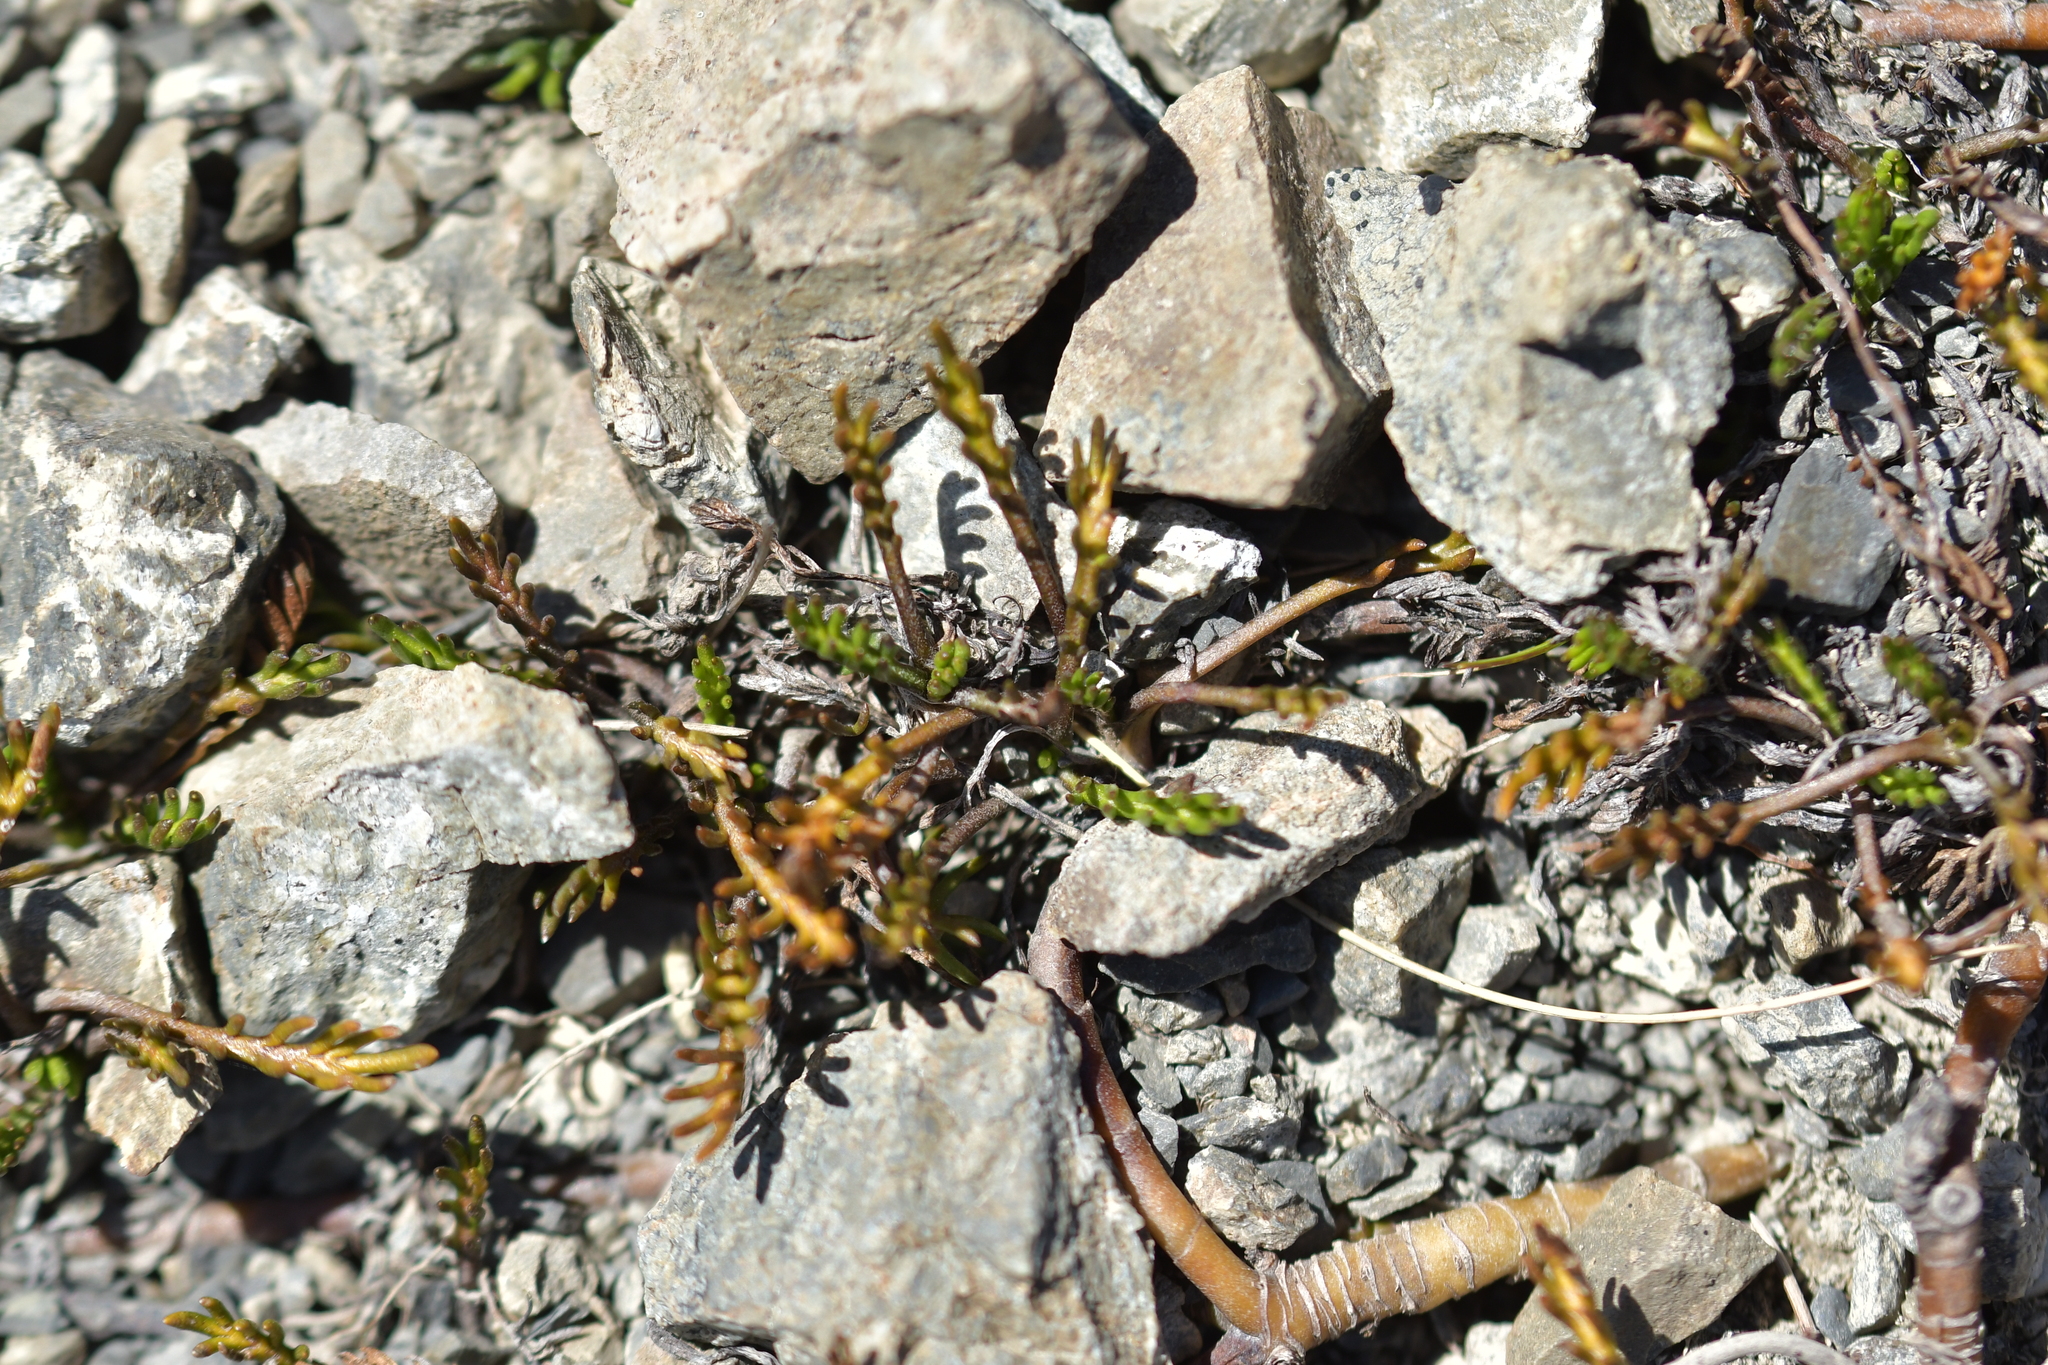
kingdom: Plantae
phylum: Tracheophyta
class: Magnoliopsida
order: Asterales
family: Asteraceae
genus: Leptinella
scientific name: Leptinella pectinata
